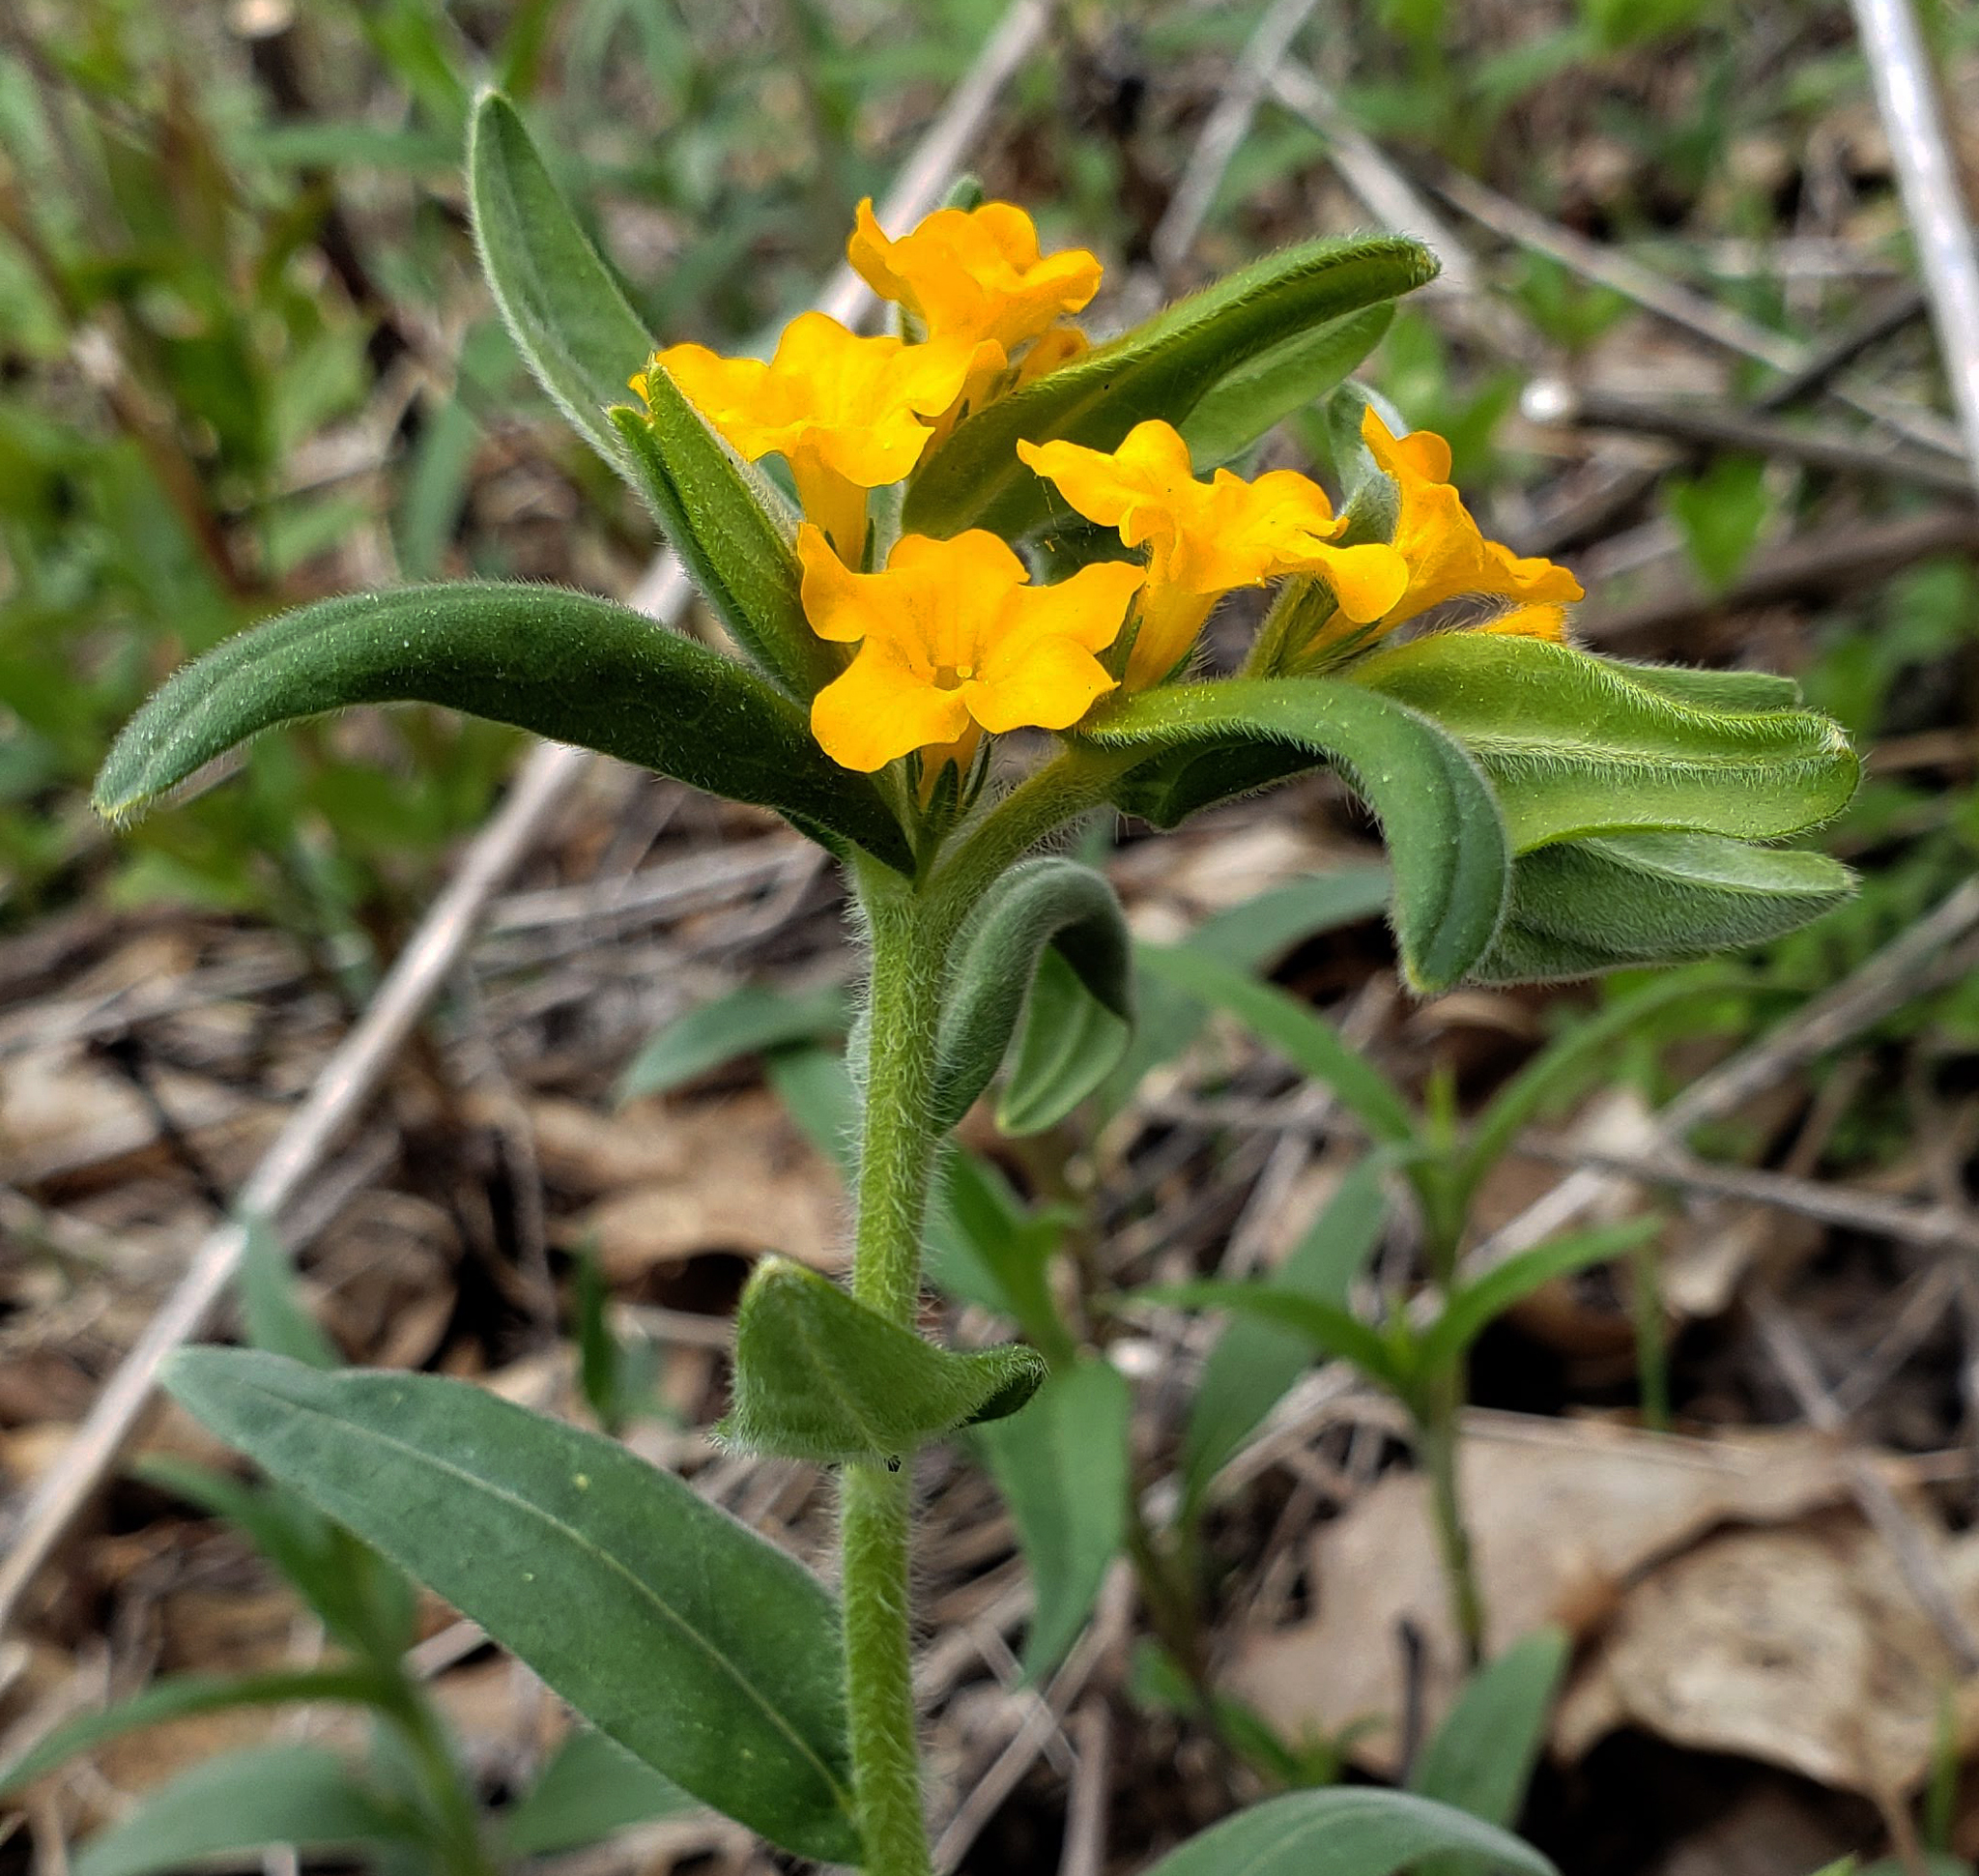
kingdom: Plantae
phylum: Tracheophyta
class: Magnoliopsida
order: Boraginales
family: Boraginaceae
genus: Lithospermum
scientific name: Lithospermum canescens
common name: Hoary puccoon
